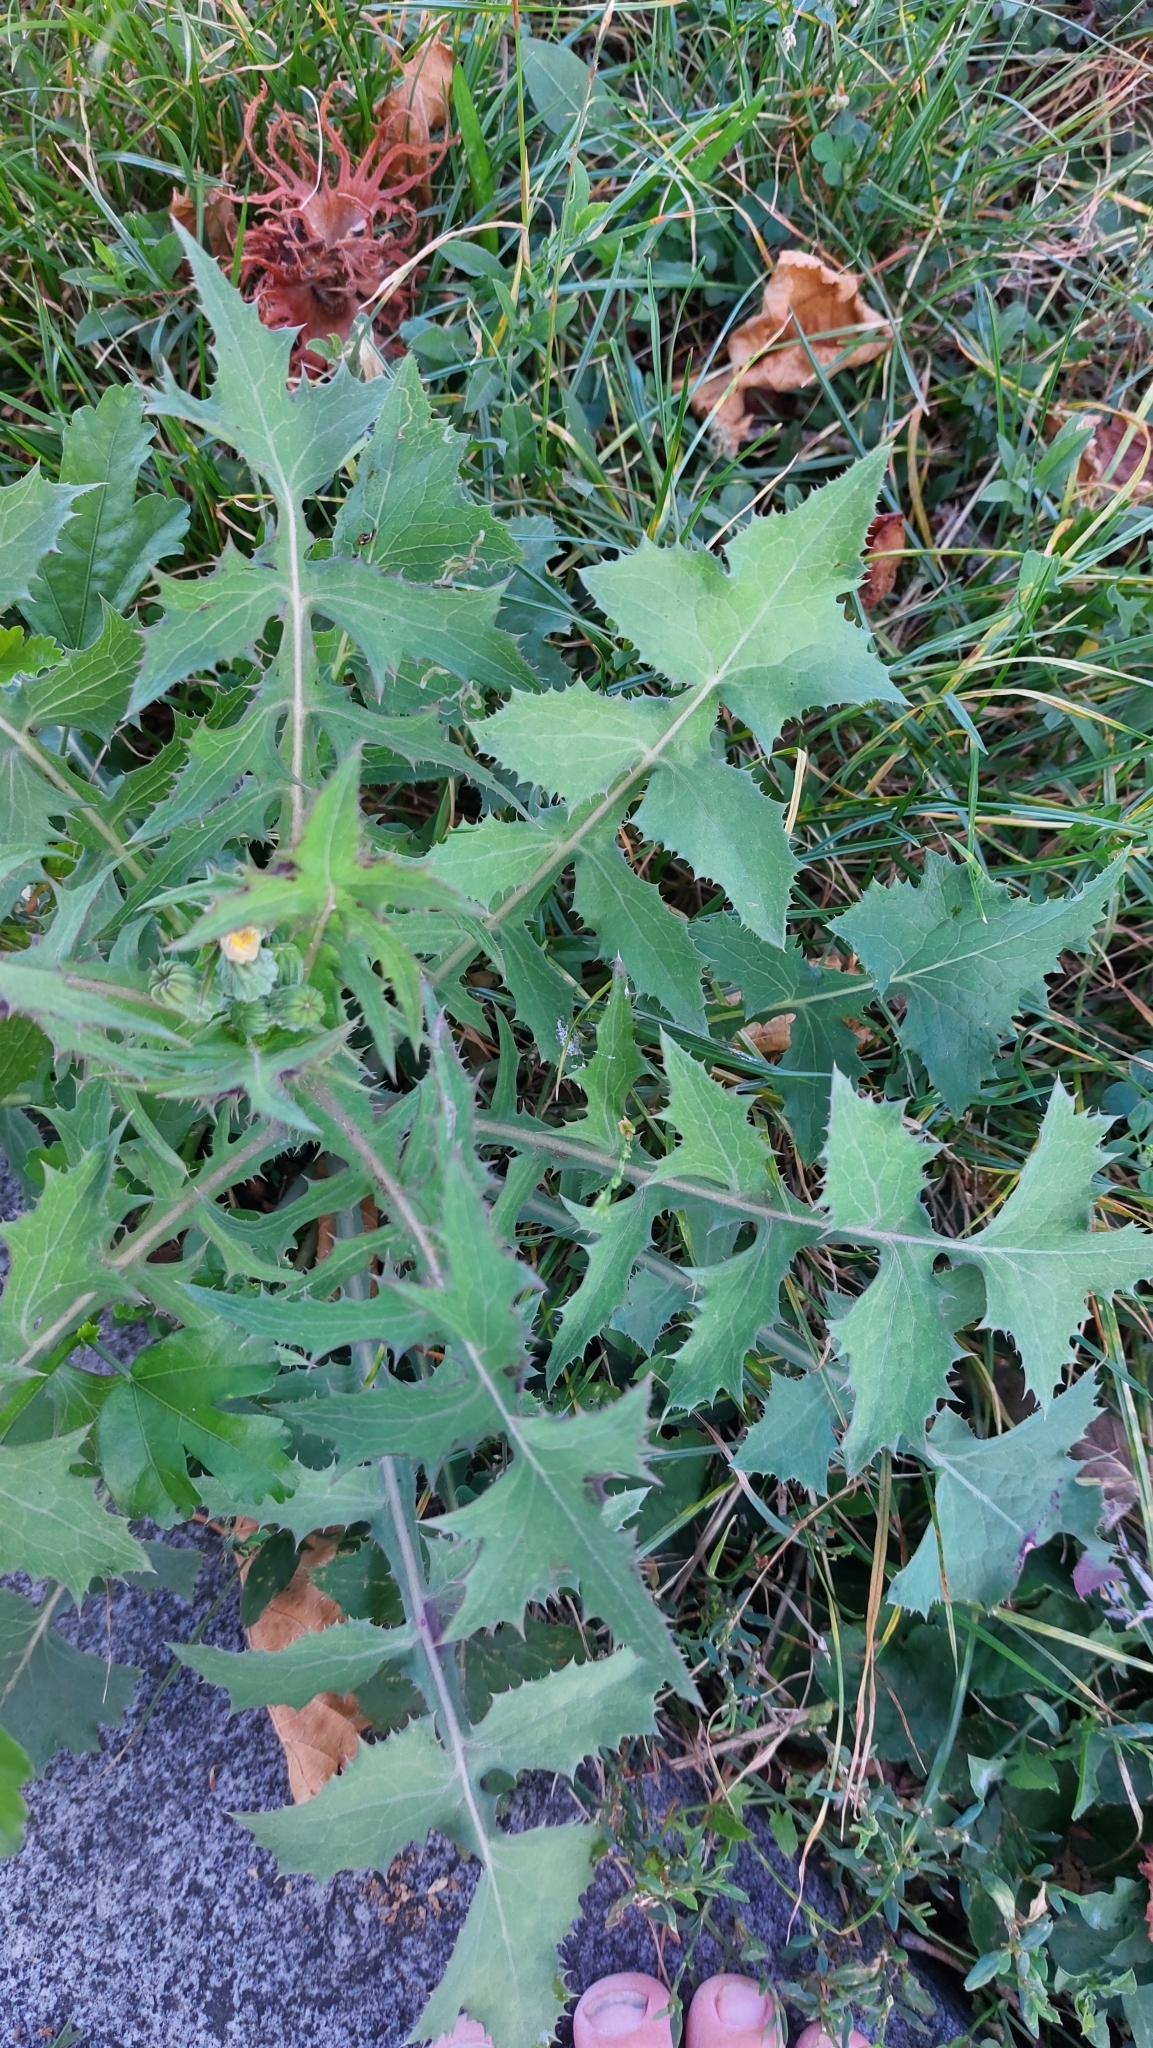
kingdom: Plantae
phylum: Tracheophyta
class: Magnoliopsida
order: Asterales
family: Asteraceae
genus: Sonchus
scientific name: Sonchus oleraceus
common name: Common sowthistle
